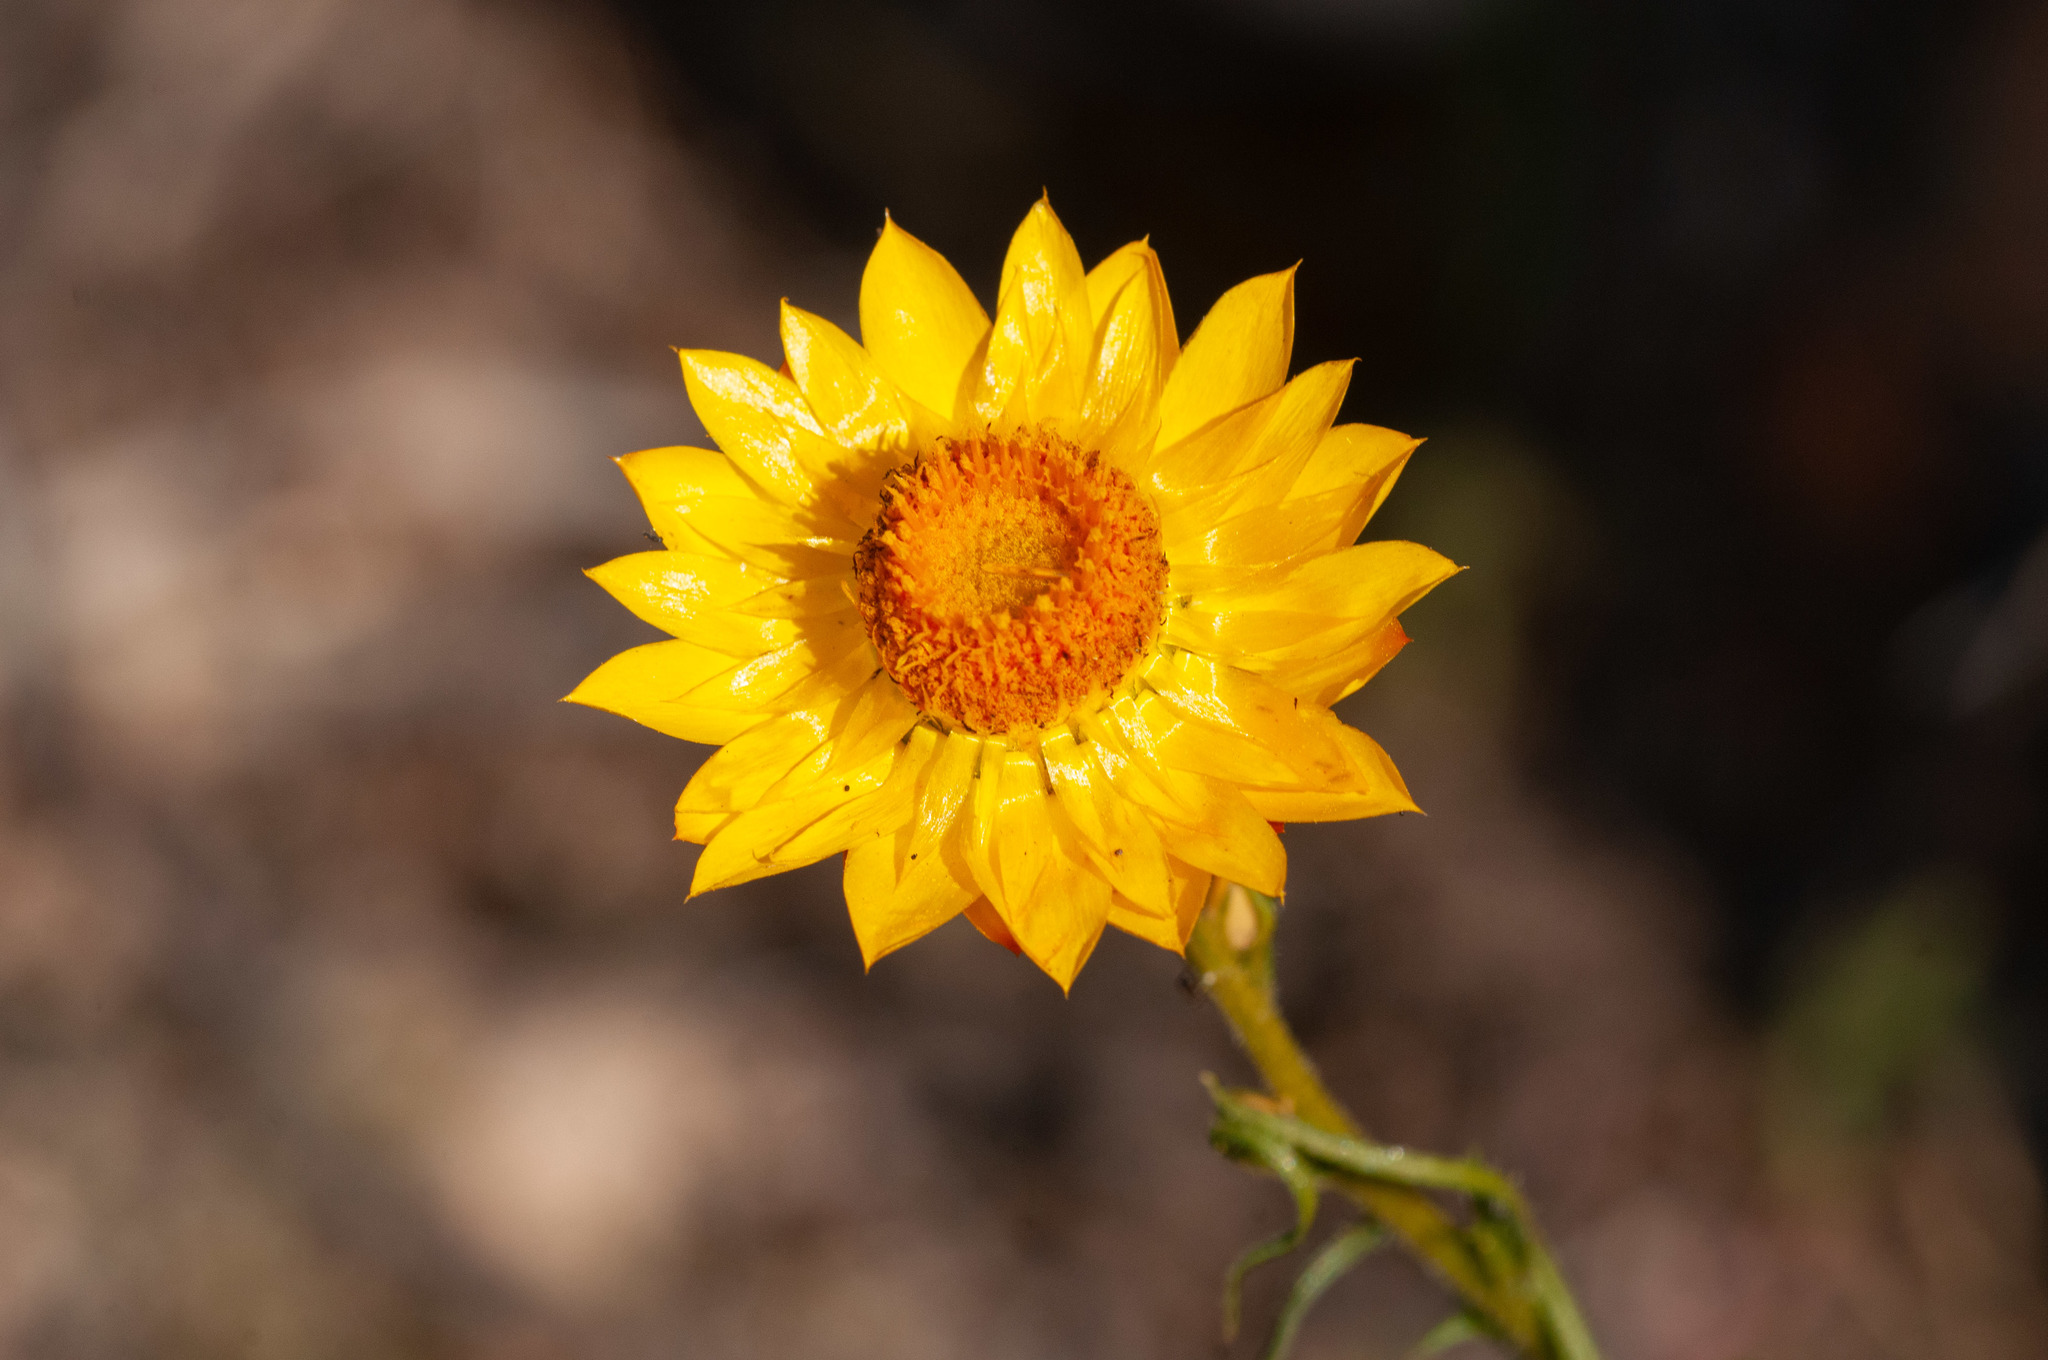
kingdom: Plantae
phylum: Tracheophyta
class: Magnoliopsida
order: Asterales
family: Asteraceae
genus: Xerochrysum
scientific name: Xerochrysum viscosum
